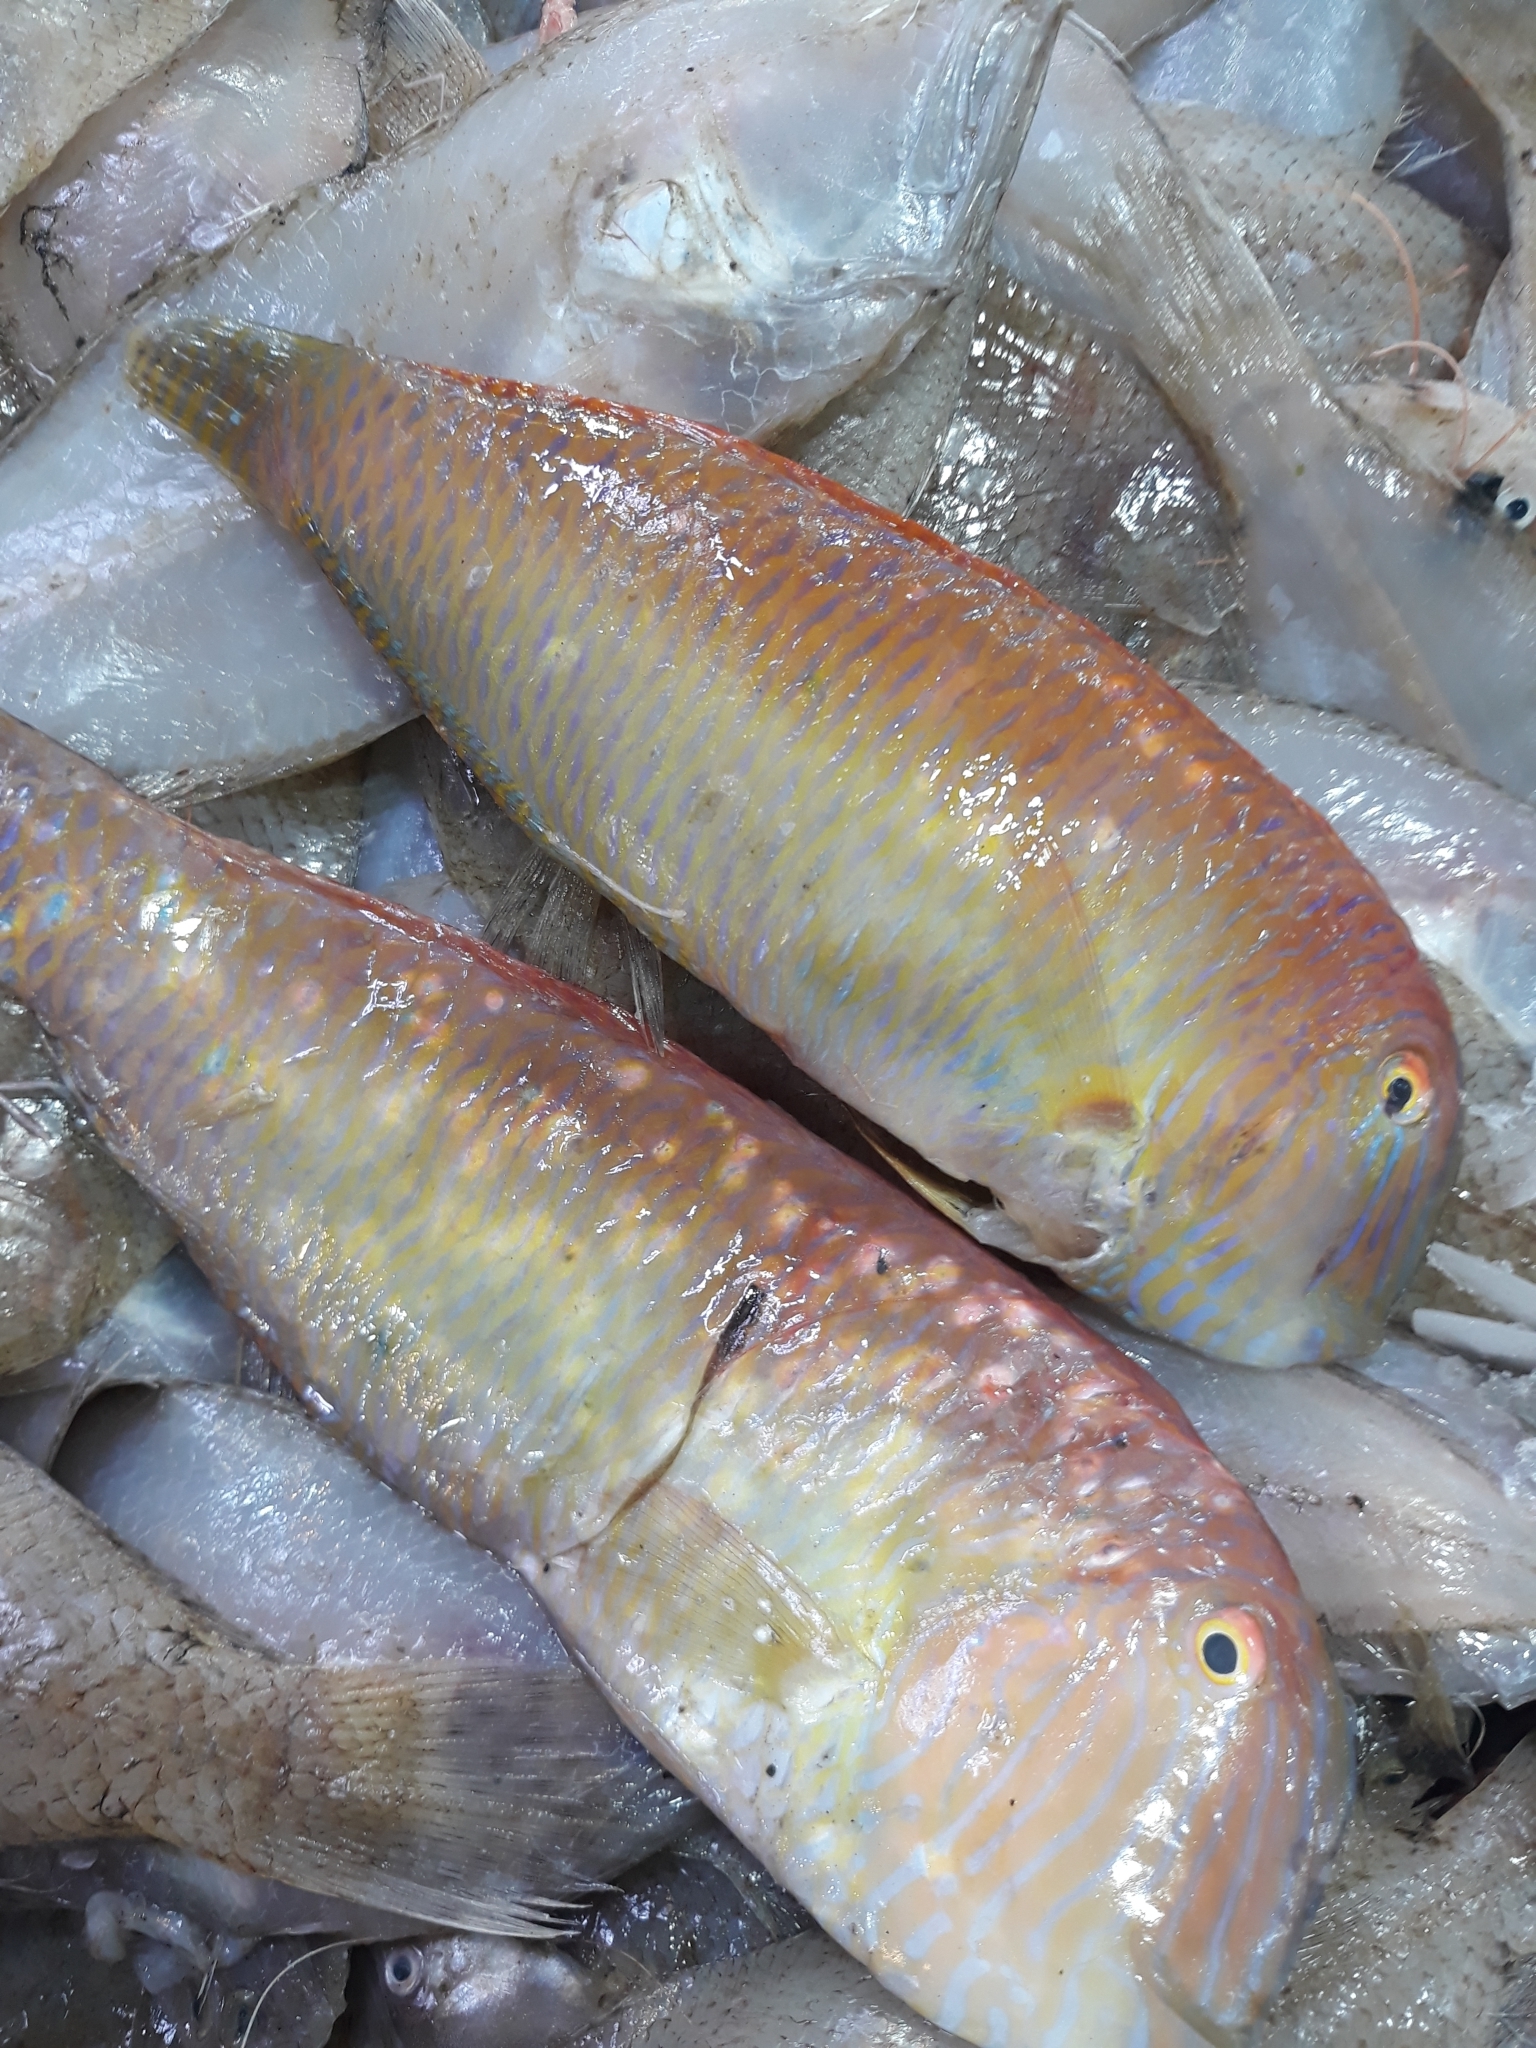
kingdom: Animalia
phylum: Chordata
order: Perciformes
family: Labridae
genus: Xyrichtys
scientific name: Xyrichtys novacula
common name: Pearly razorfish
